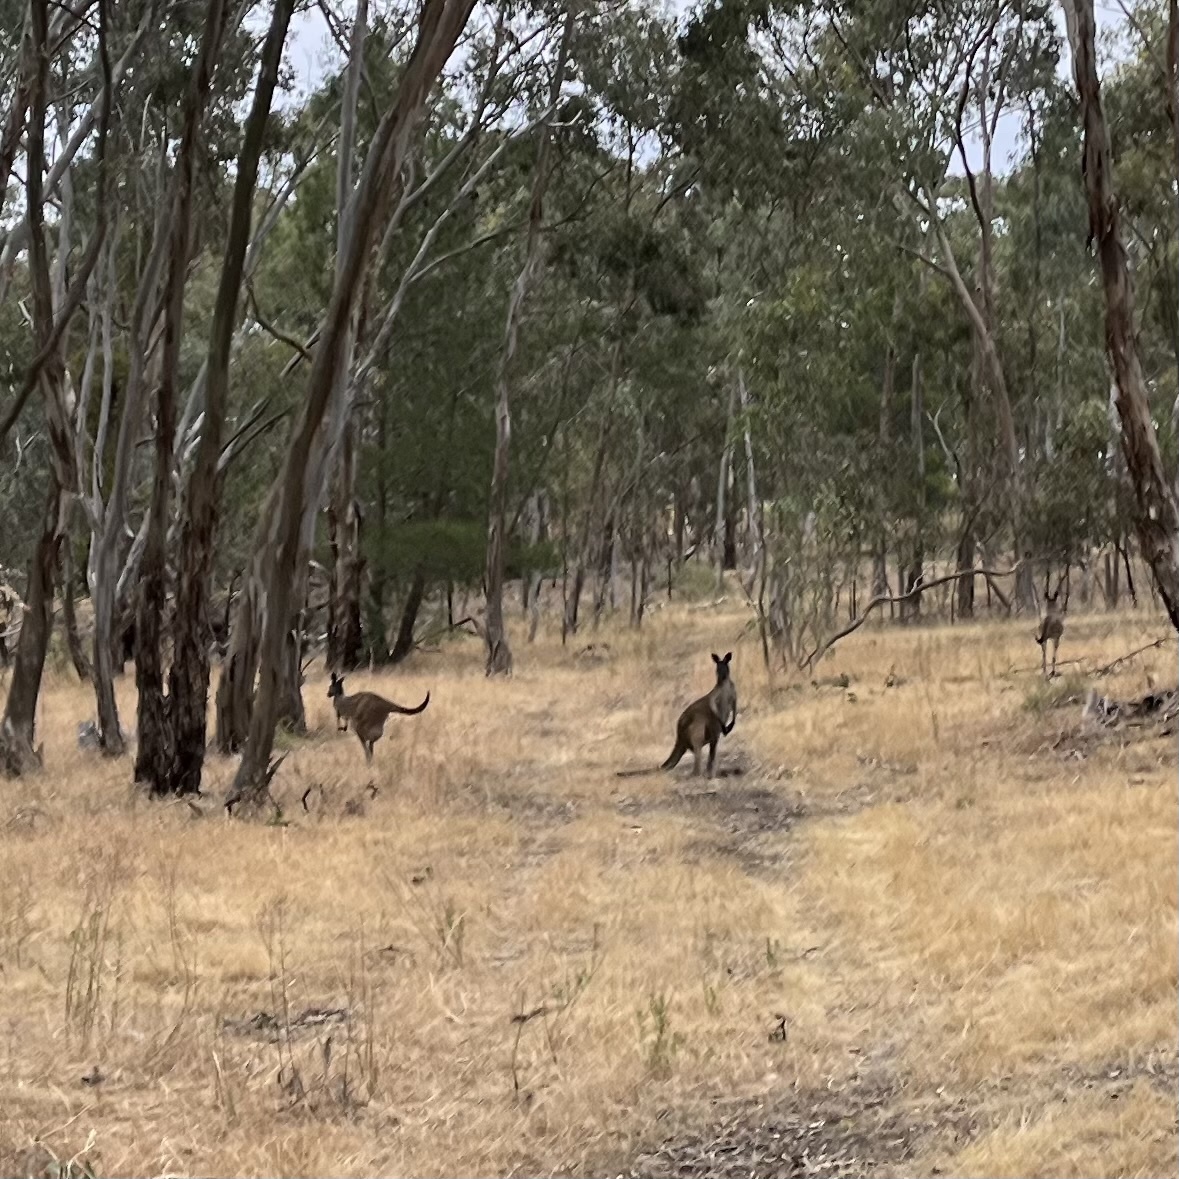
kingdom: Animalia
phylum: Chordata
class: Mammalia
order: Diprotodontia
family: Macropodidae
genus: Macropus
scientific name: Macropus fuliginosus
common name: Western grey kangaroo
